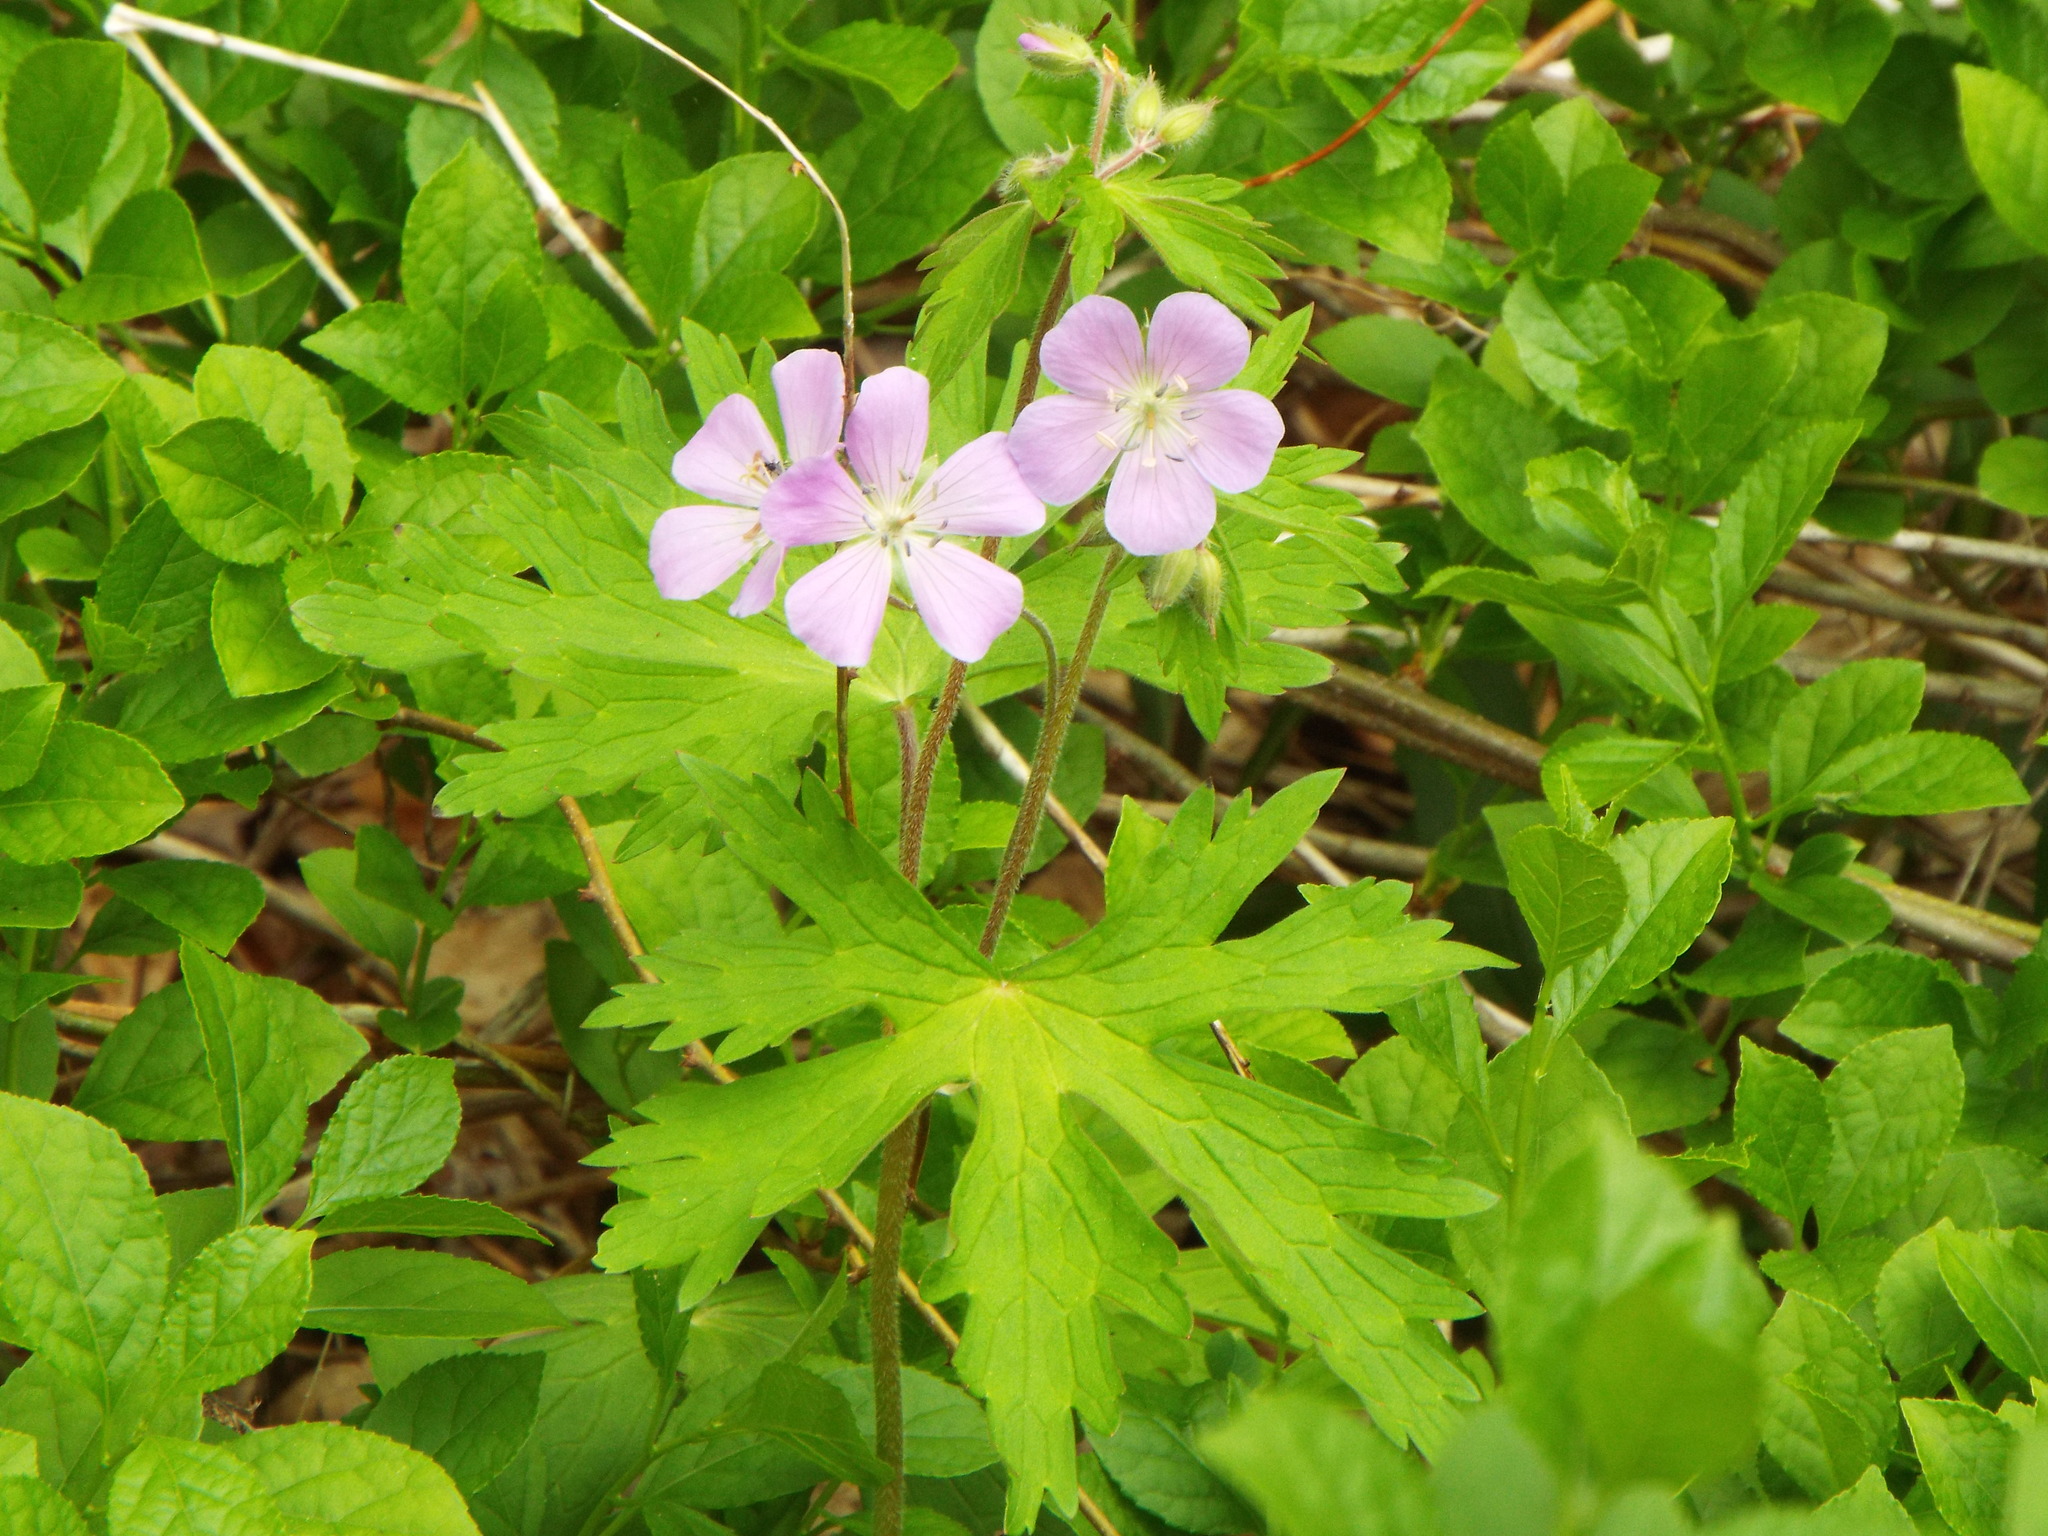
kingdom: Plantae
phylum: Tracheophyta
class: Magnoliopsida
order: Geraniales
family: Geraniaceae
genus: Geranium
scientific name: Geranium maculatum
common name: Spotted geranium
